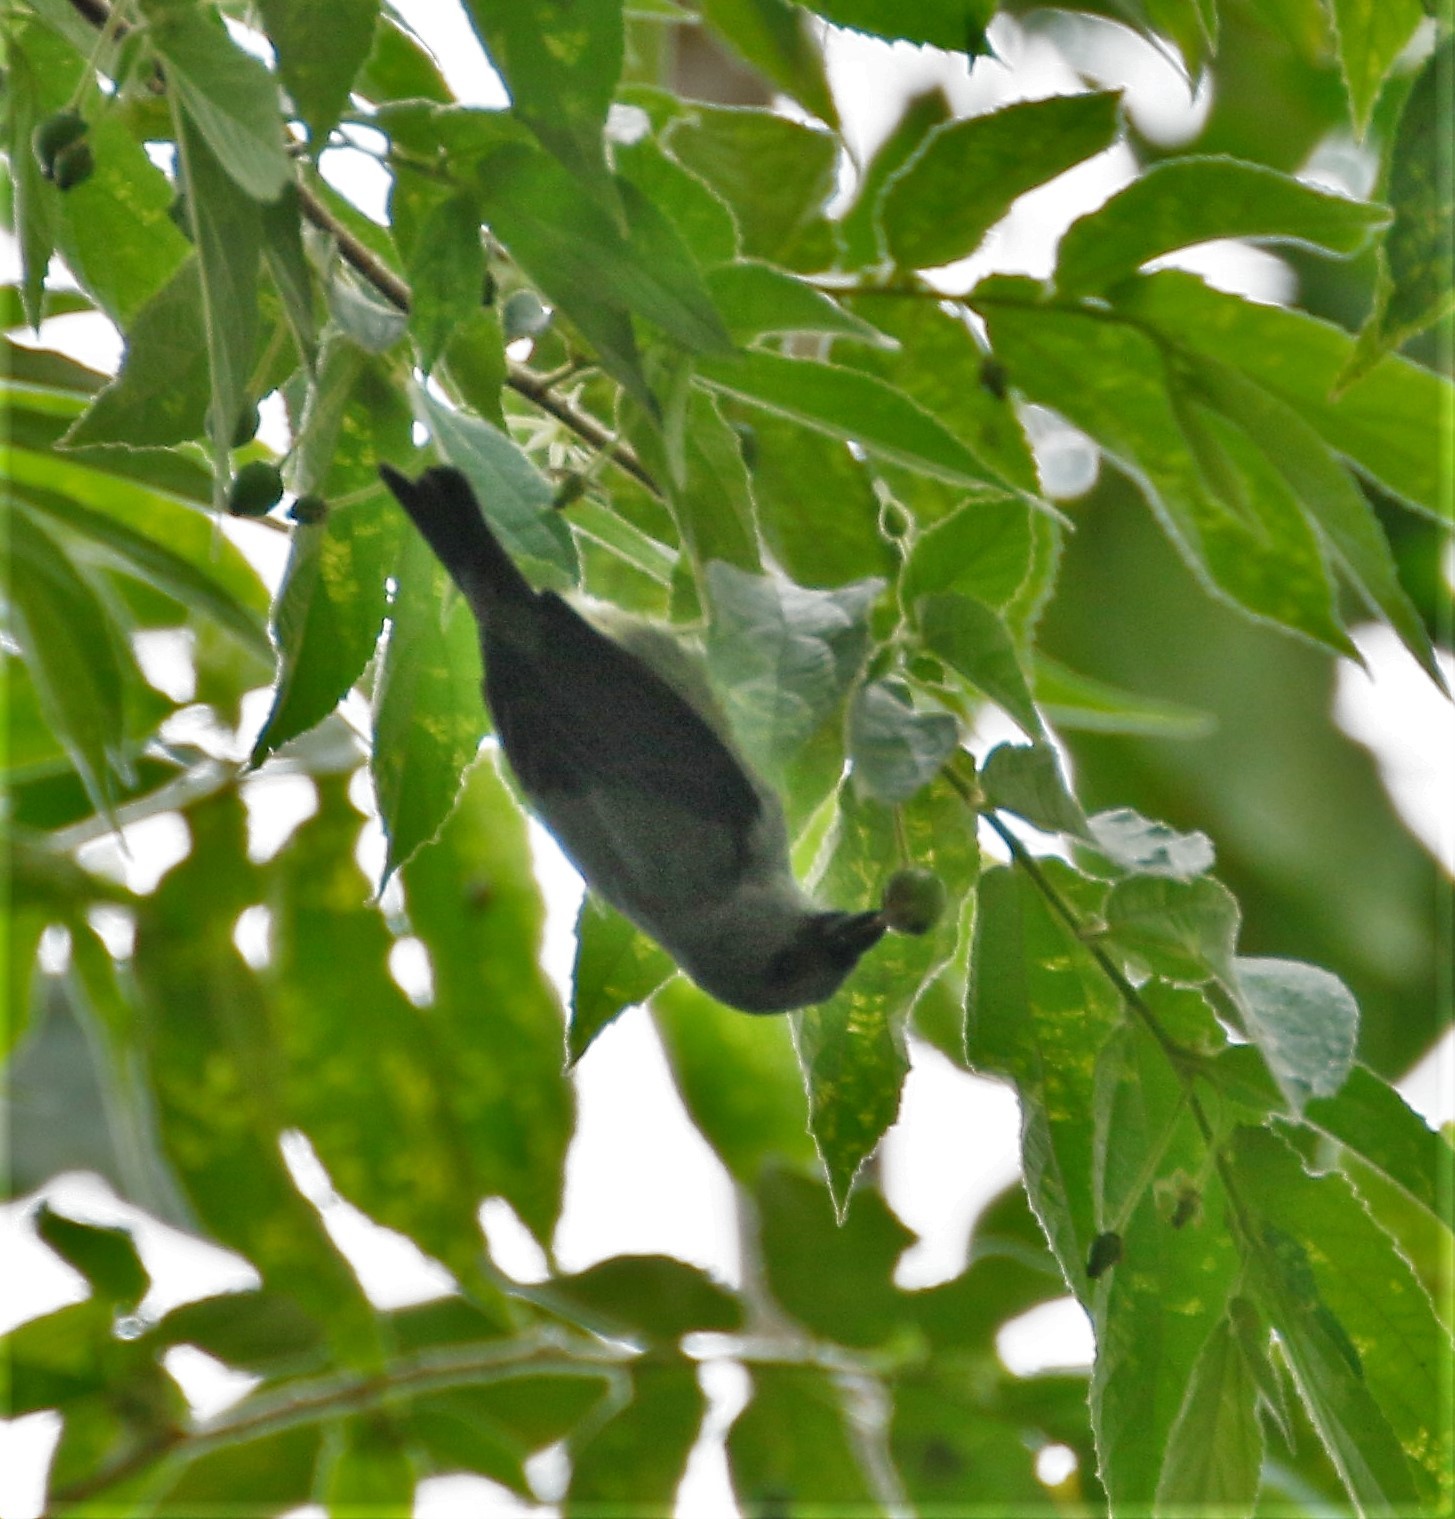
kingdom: Animalia
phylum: Chordata
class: Aves
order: Passeriformes
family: Thraupidae
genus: Tangara
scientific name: Tangara inornata
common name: Plain-colored tanager
